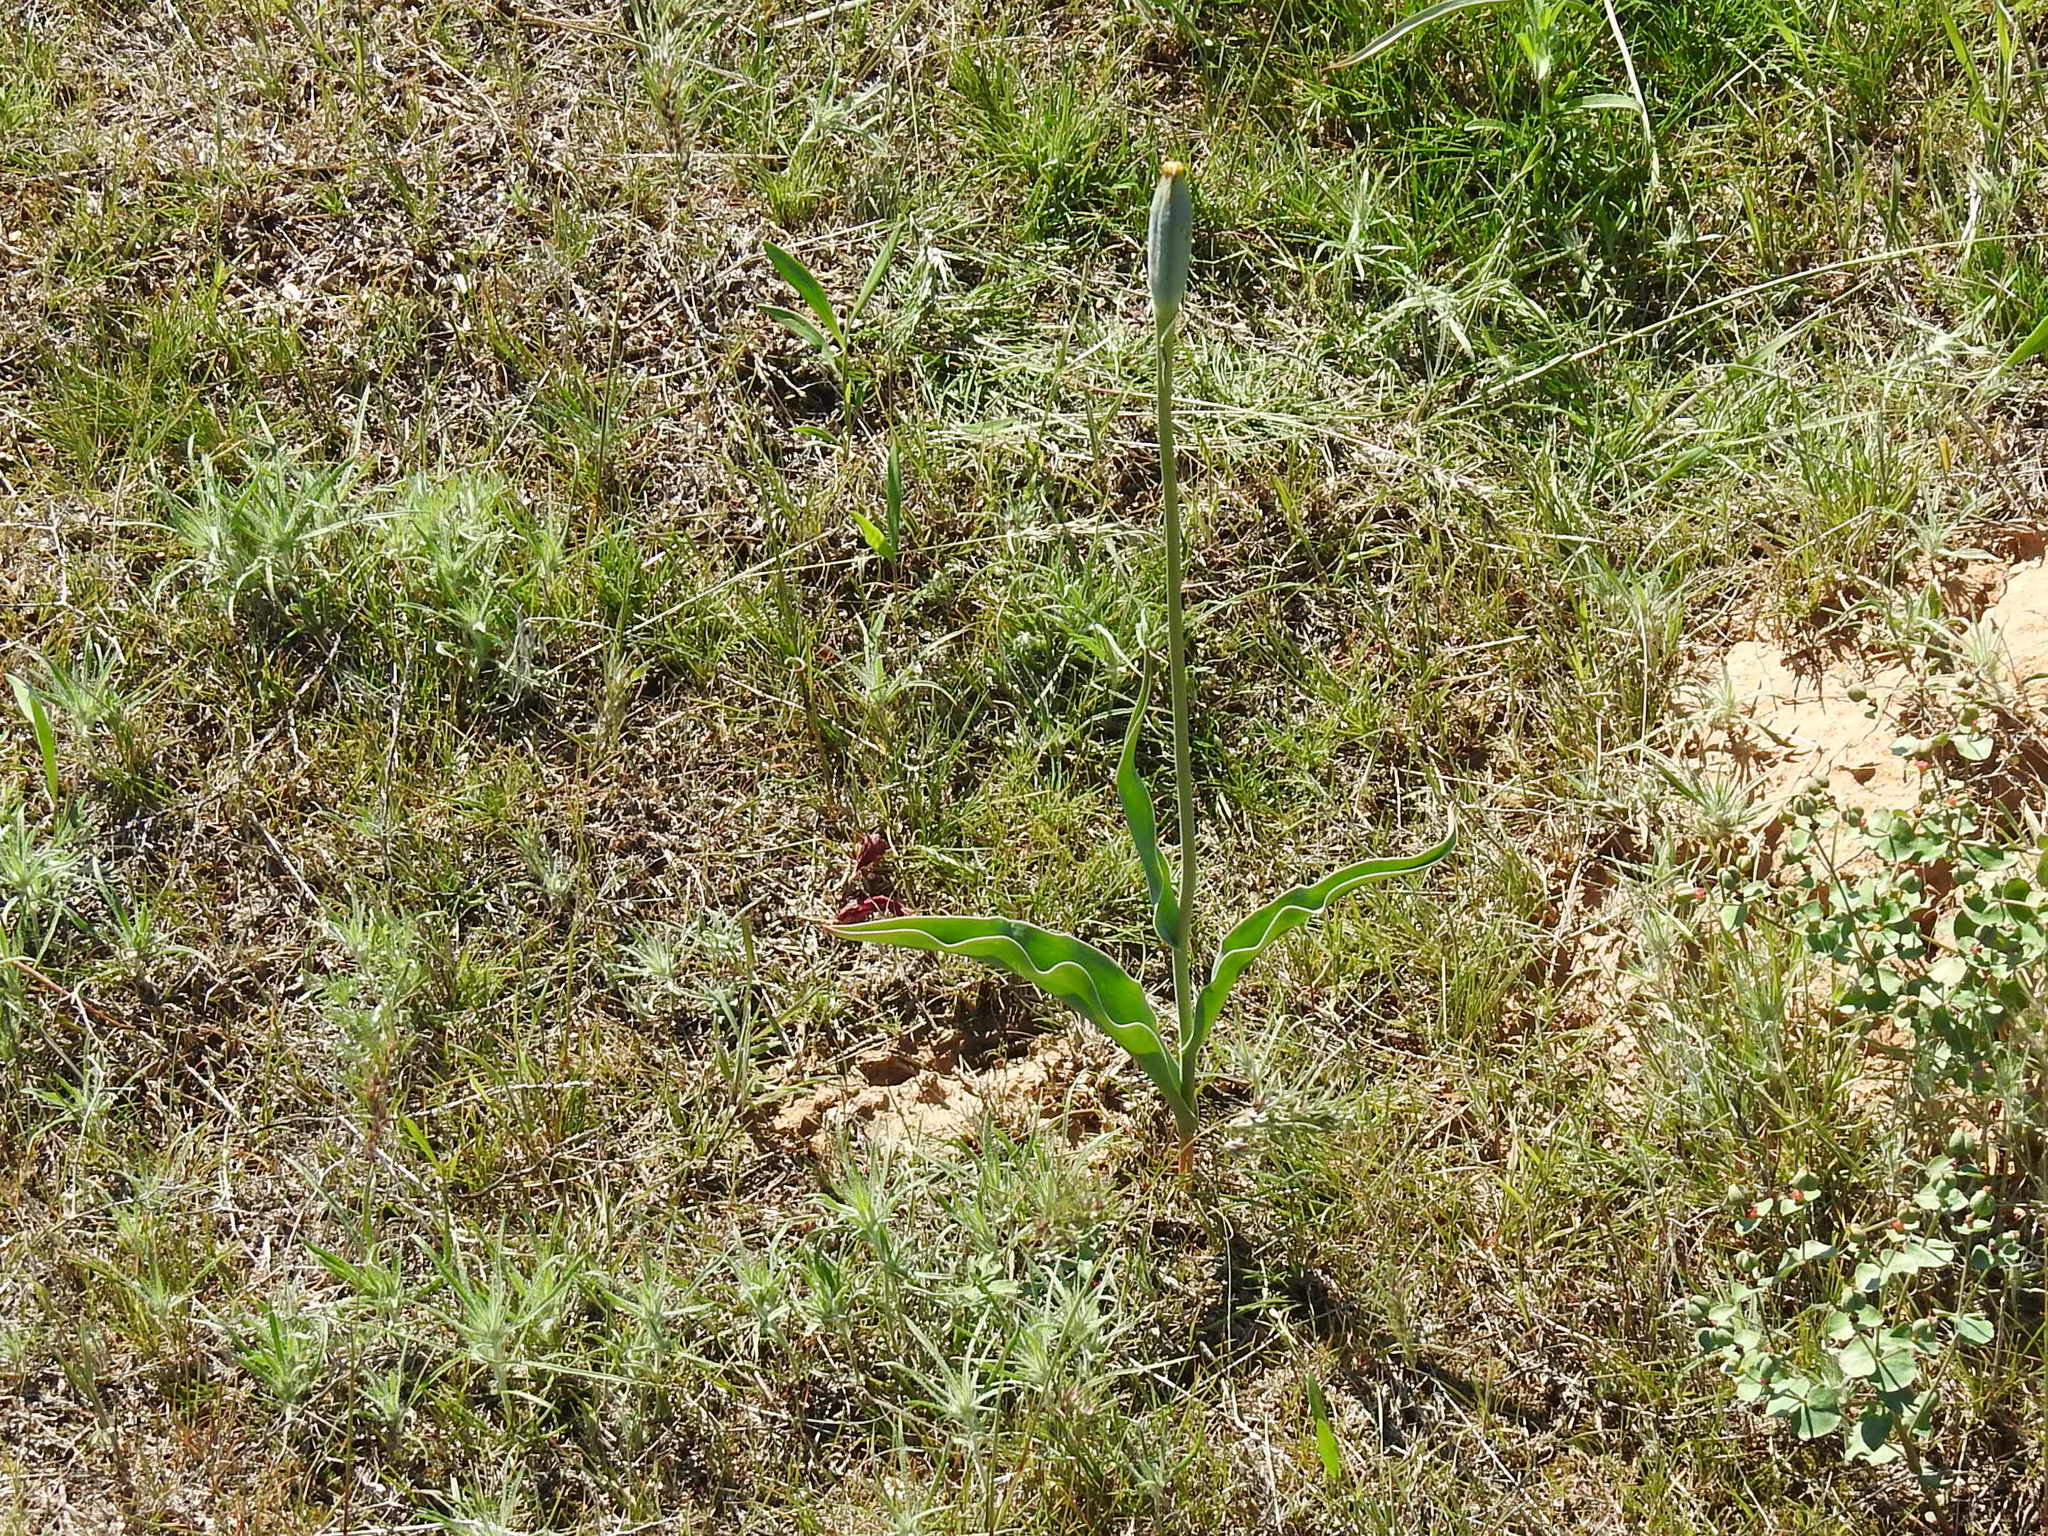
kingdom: Plantae
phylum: Tracheophyta
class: Liliopsida
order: Liliales
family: Liliaceae
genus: Tulipa
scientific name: Tulipa suaveolens
